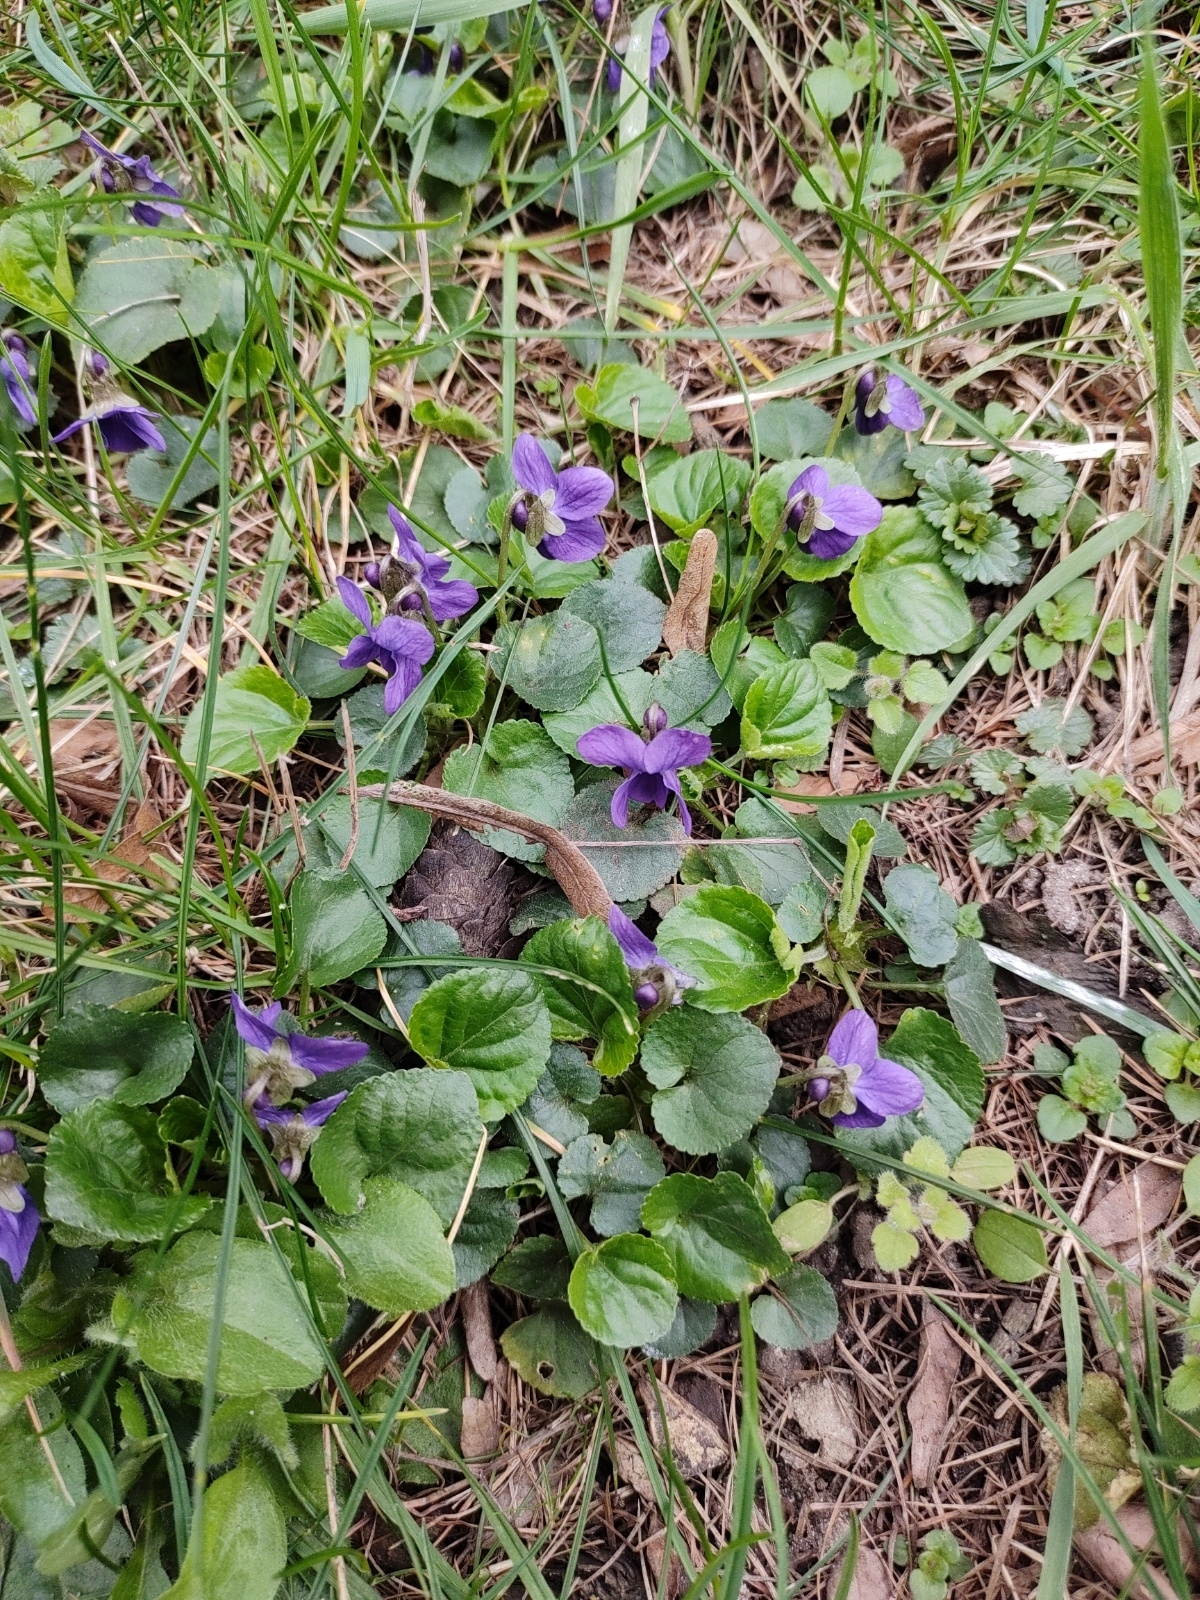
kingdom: Plantae
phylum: Tracheophyta
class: Magnoliopsida
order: Malpighiales
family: Violaceae
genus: Viola
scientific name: Viola odorata
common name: Sweet violet
